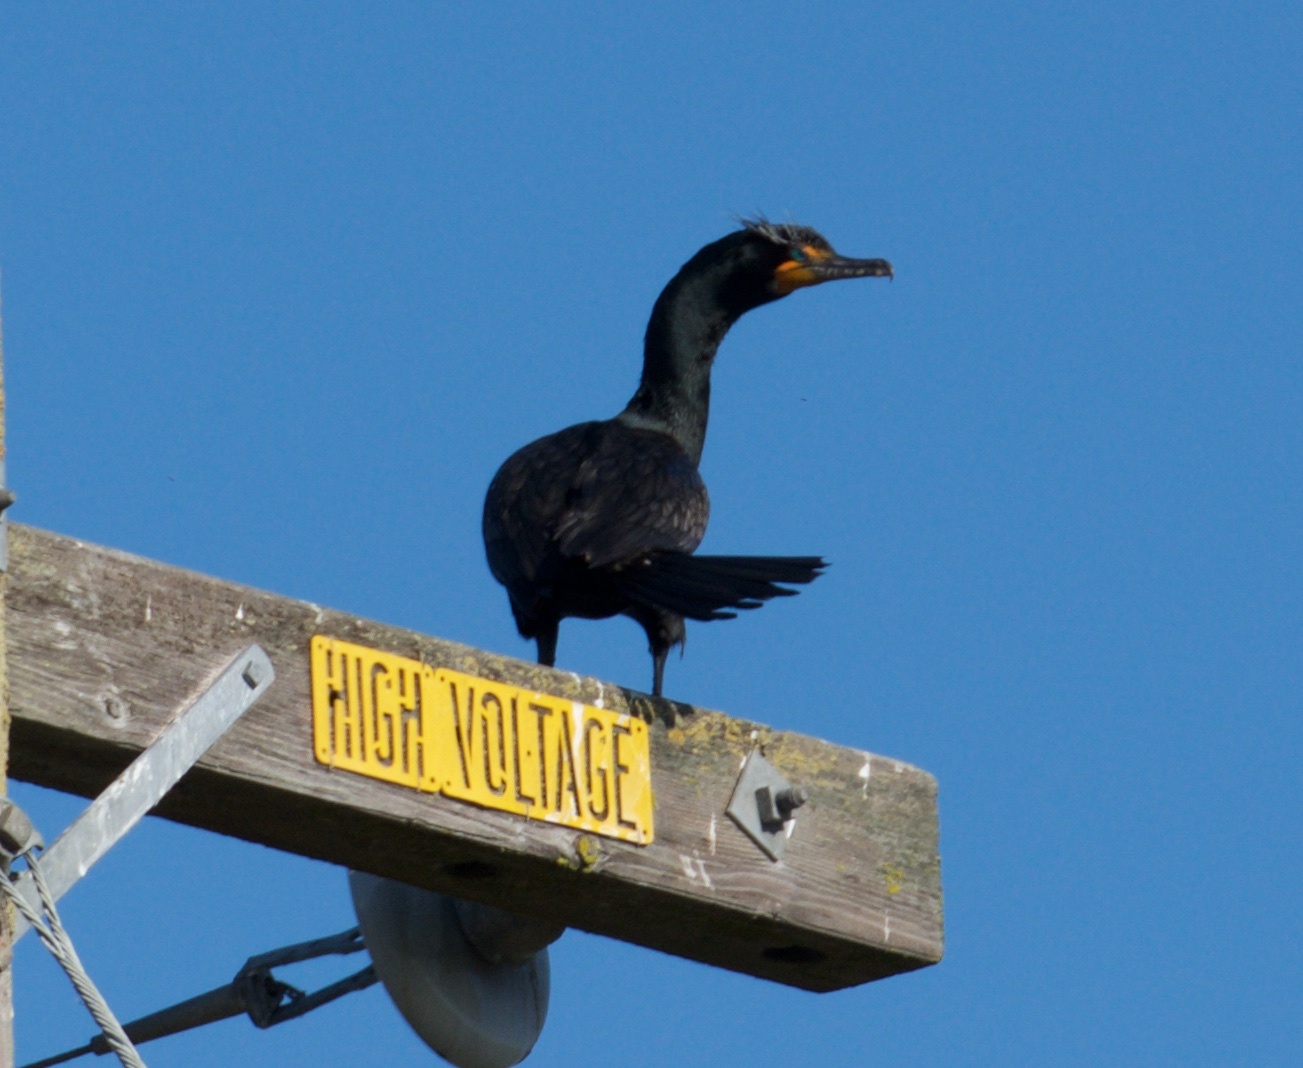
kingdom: Animalia
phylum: Chordata
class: Aves
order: Suliformes
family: Phalacrocoracidae
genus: Phalacrocorax
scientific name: Phalacrocorax auritus
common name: Double-crested cormorant
